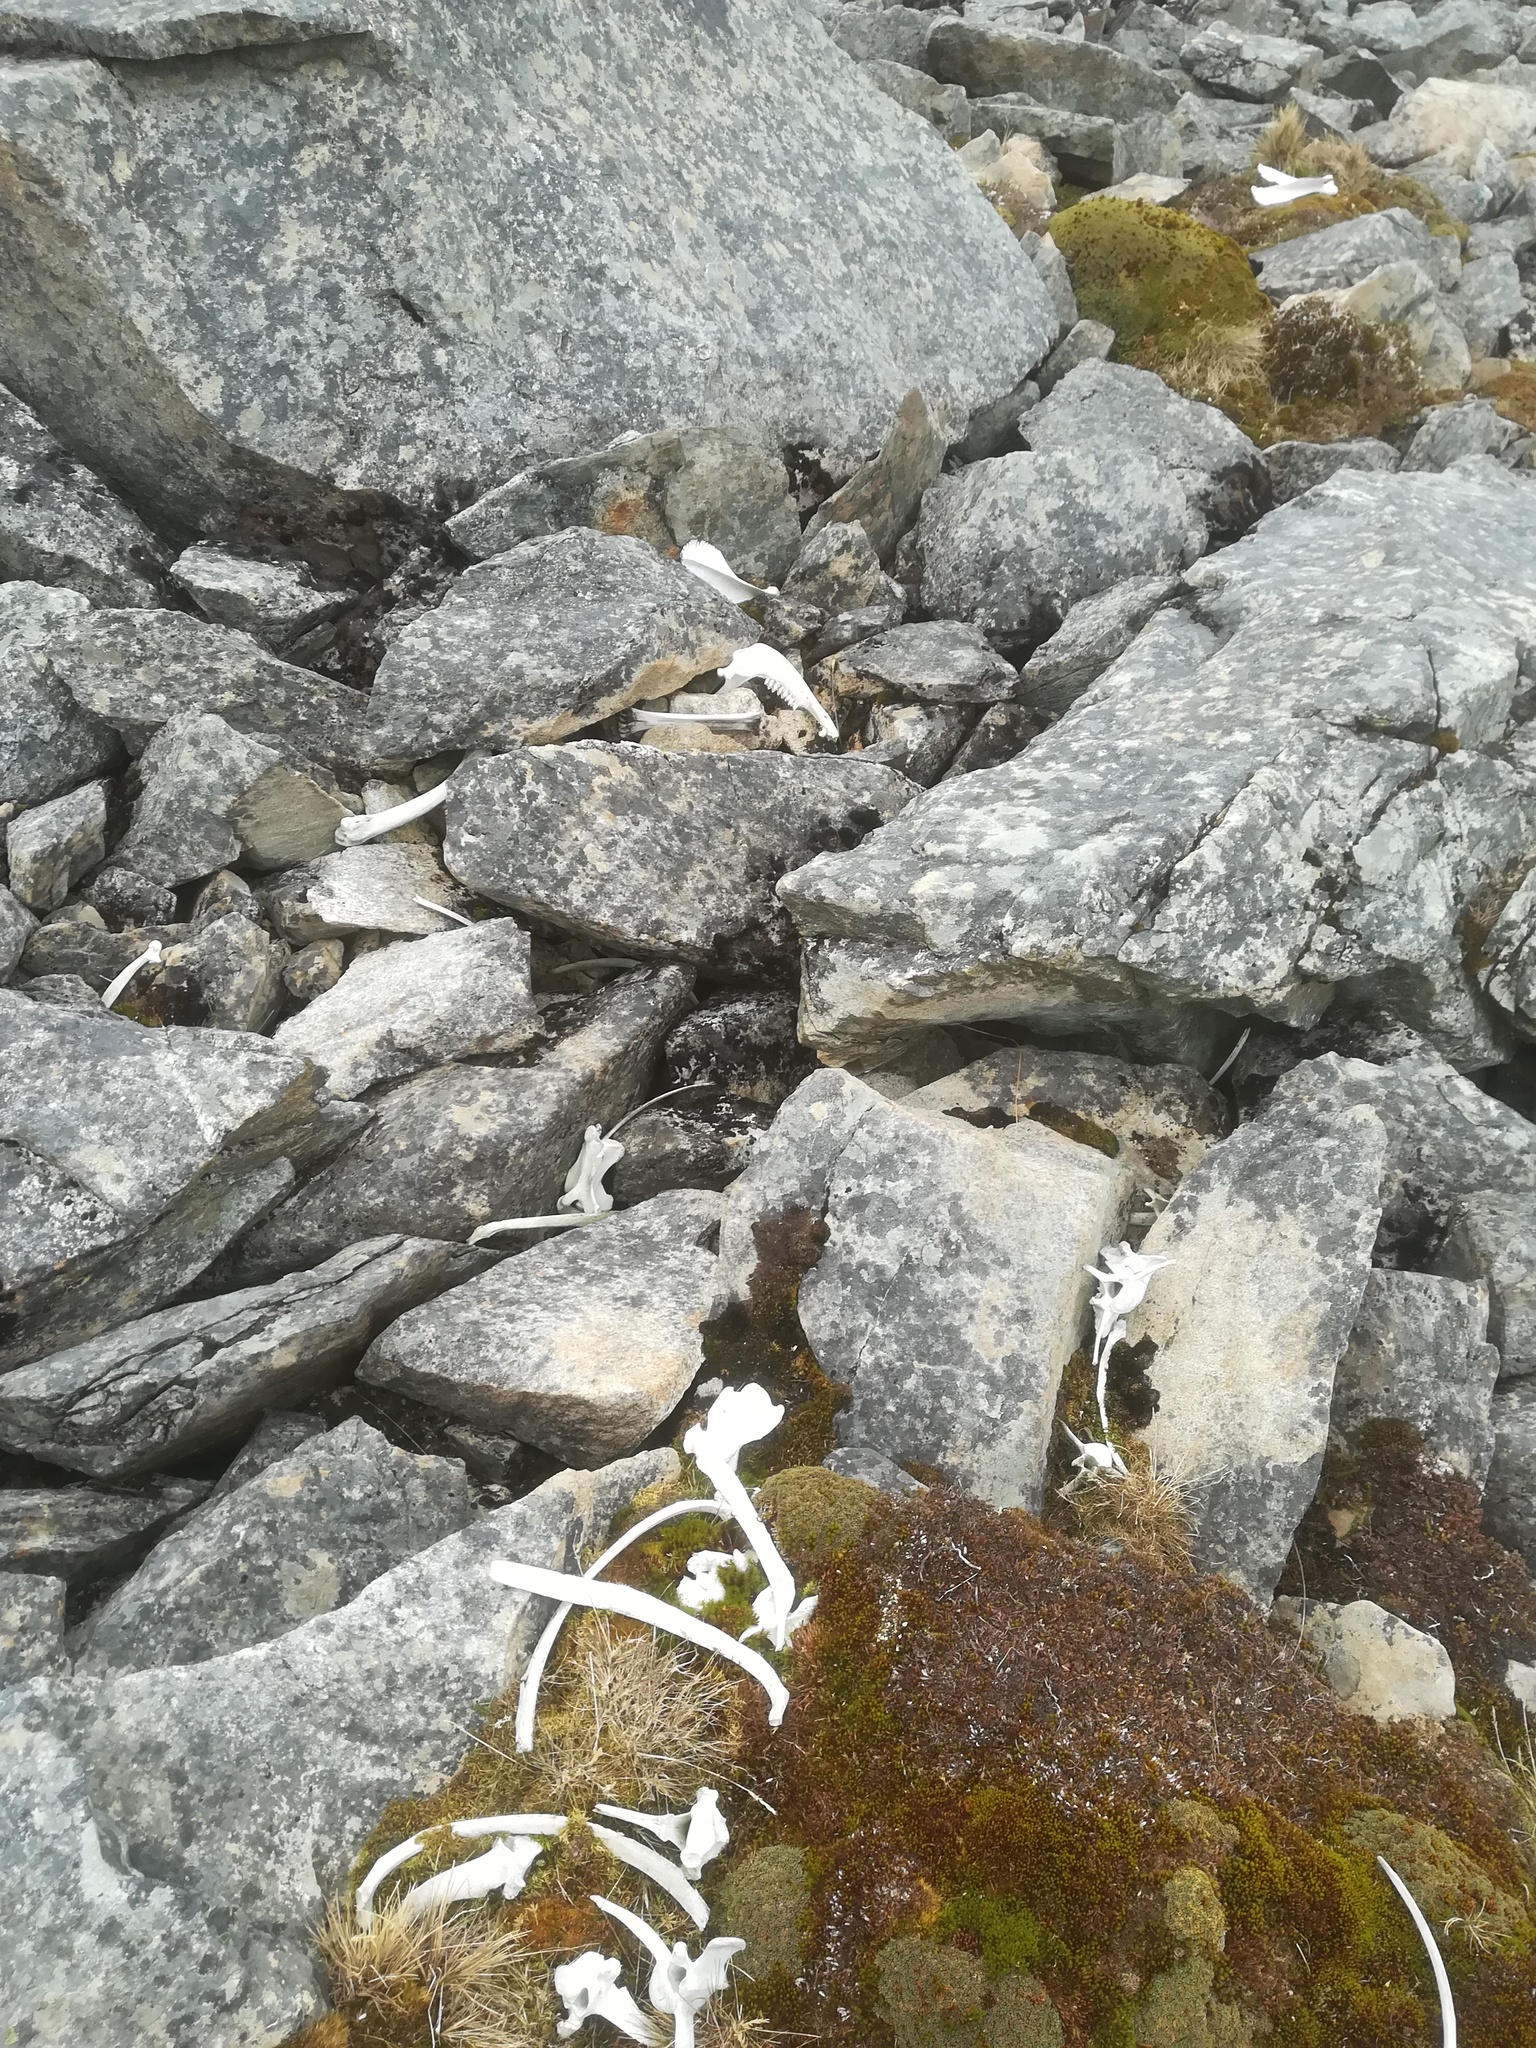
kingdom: Animalia
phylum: Chordata
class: Mammalia
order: Artiodactyla
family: Camelidae
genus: Lama
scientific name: Lama glama
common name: Llama
